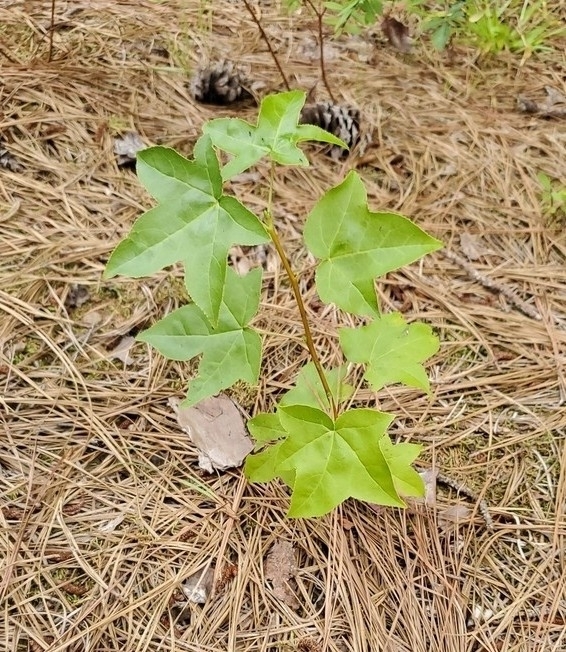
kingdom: Plantae
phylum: Tracheophyta
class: Magnoliopsida
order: Saxifragales
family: Altingiaceae
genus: Liquidambar
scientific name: Liquidambar styraciflua
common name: Sweet gum
